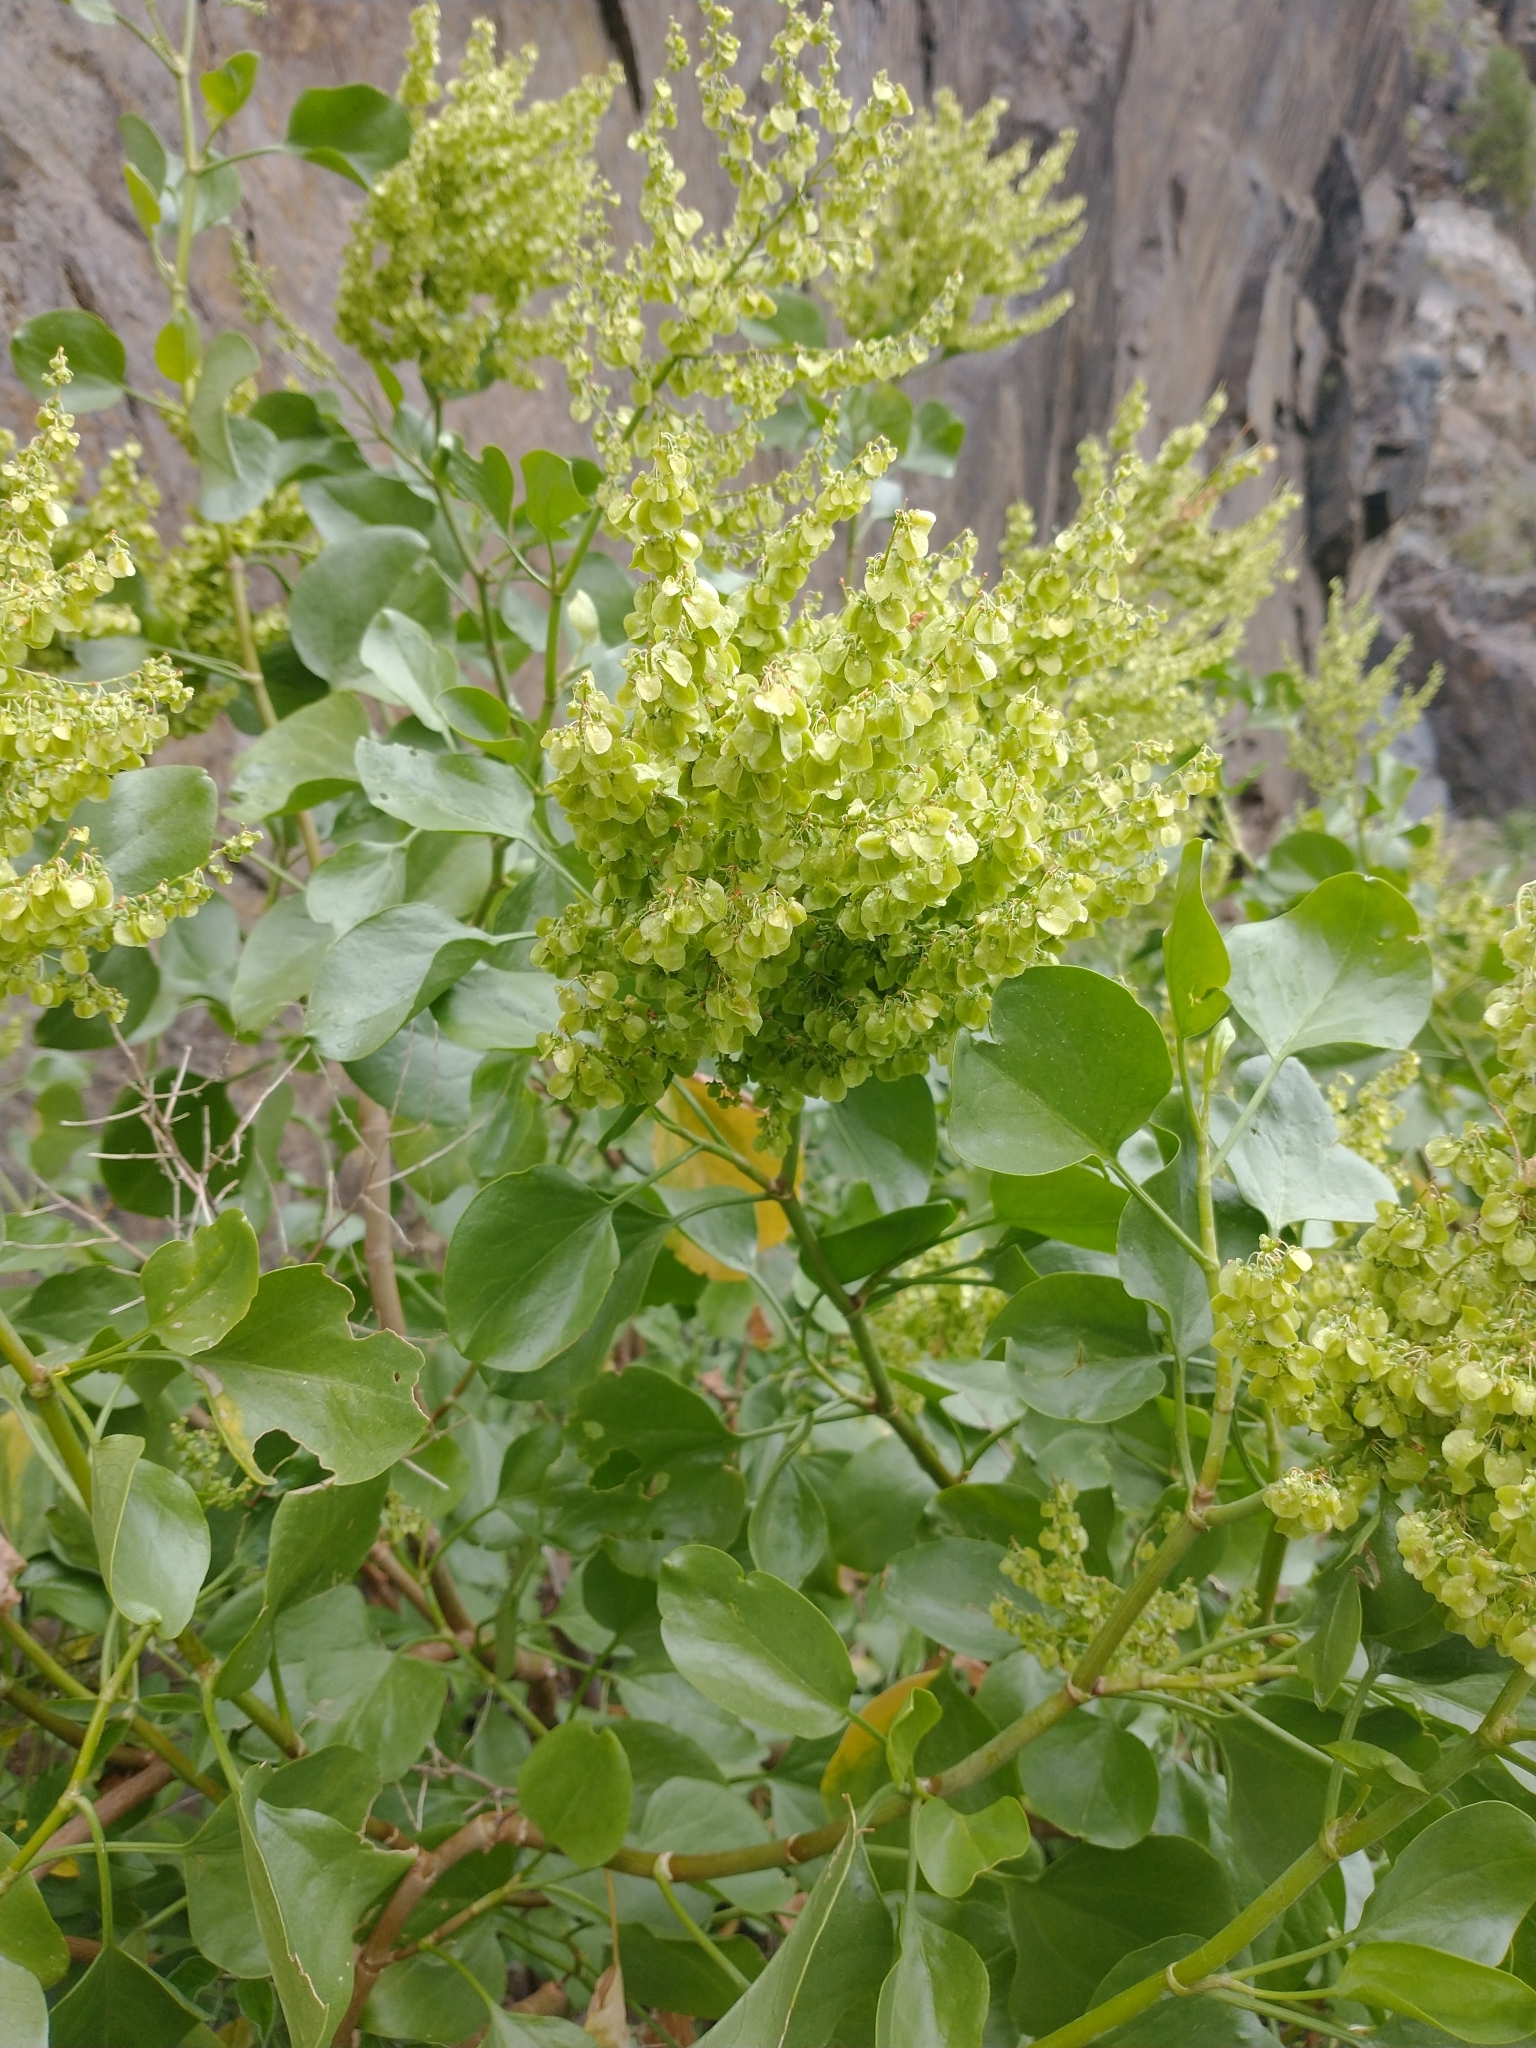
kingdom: Plantae
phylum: Tracheophyta
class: Magnoliopsida
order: Caryophyllales
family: Polygonaceae
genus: Rumex
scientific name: Rumex lunaria
